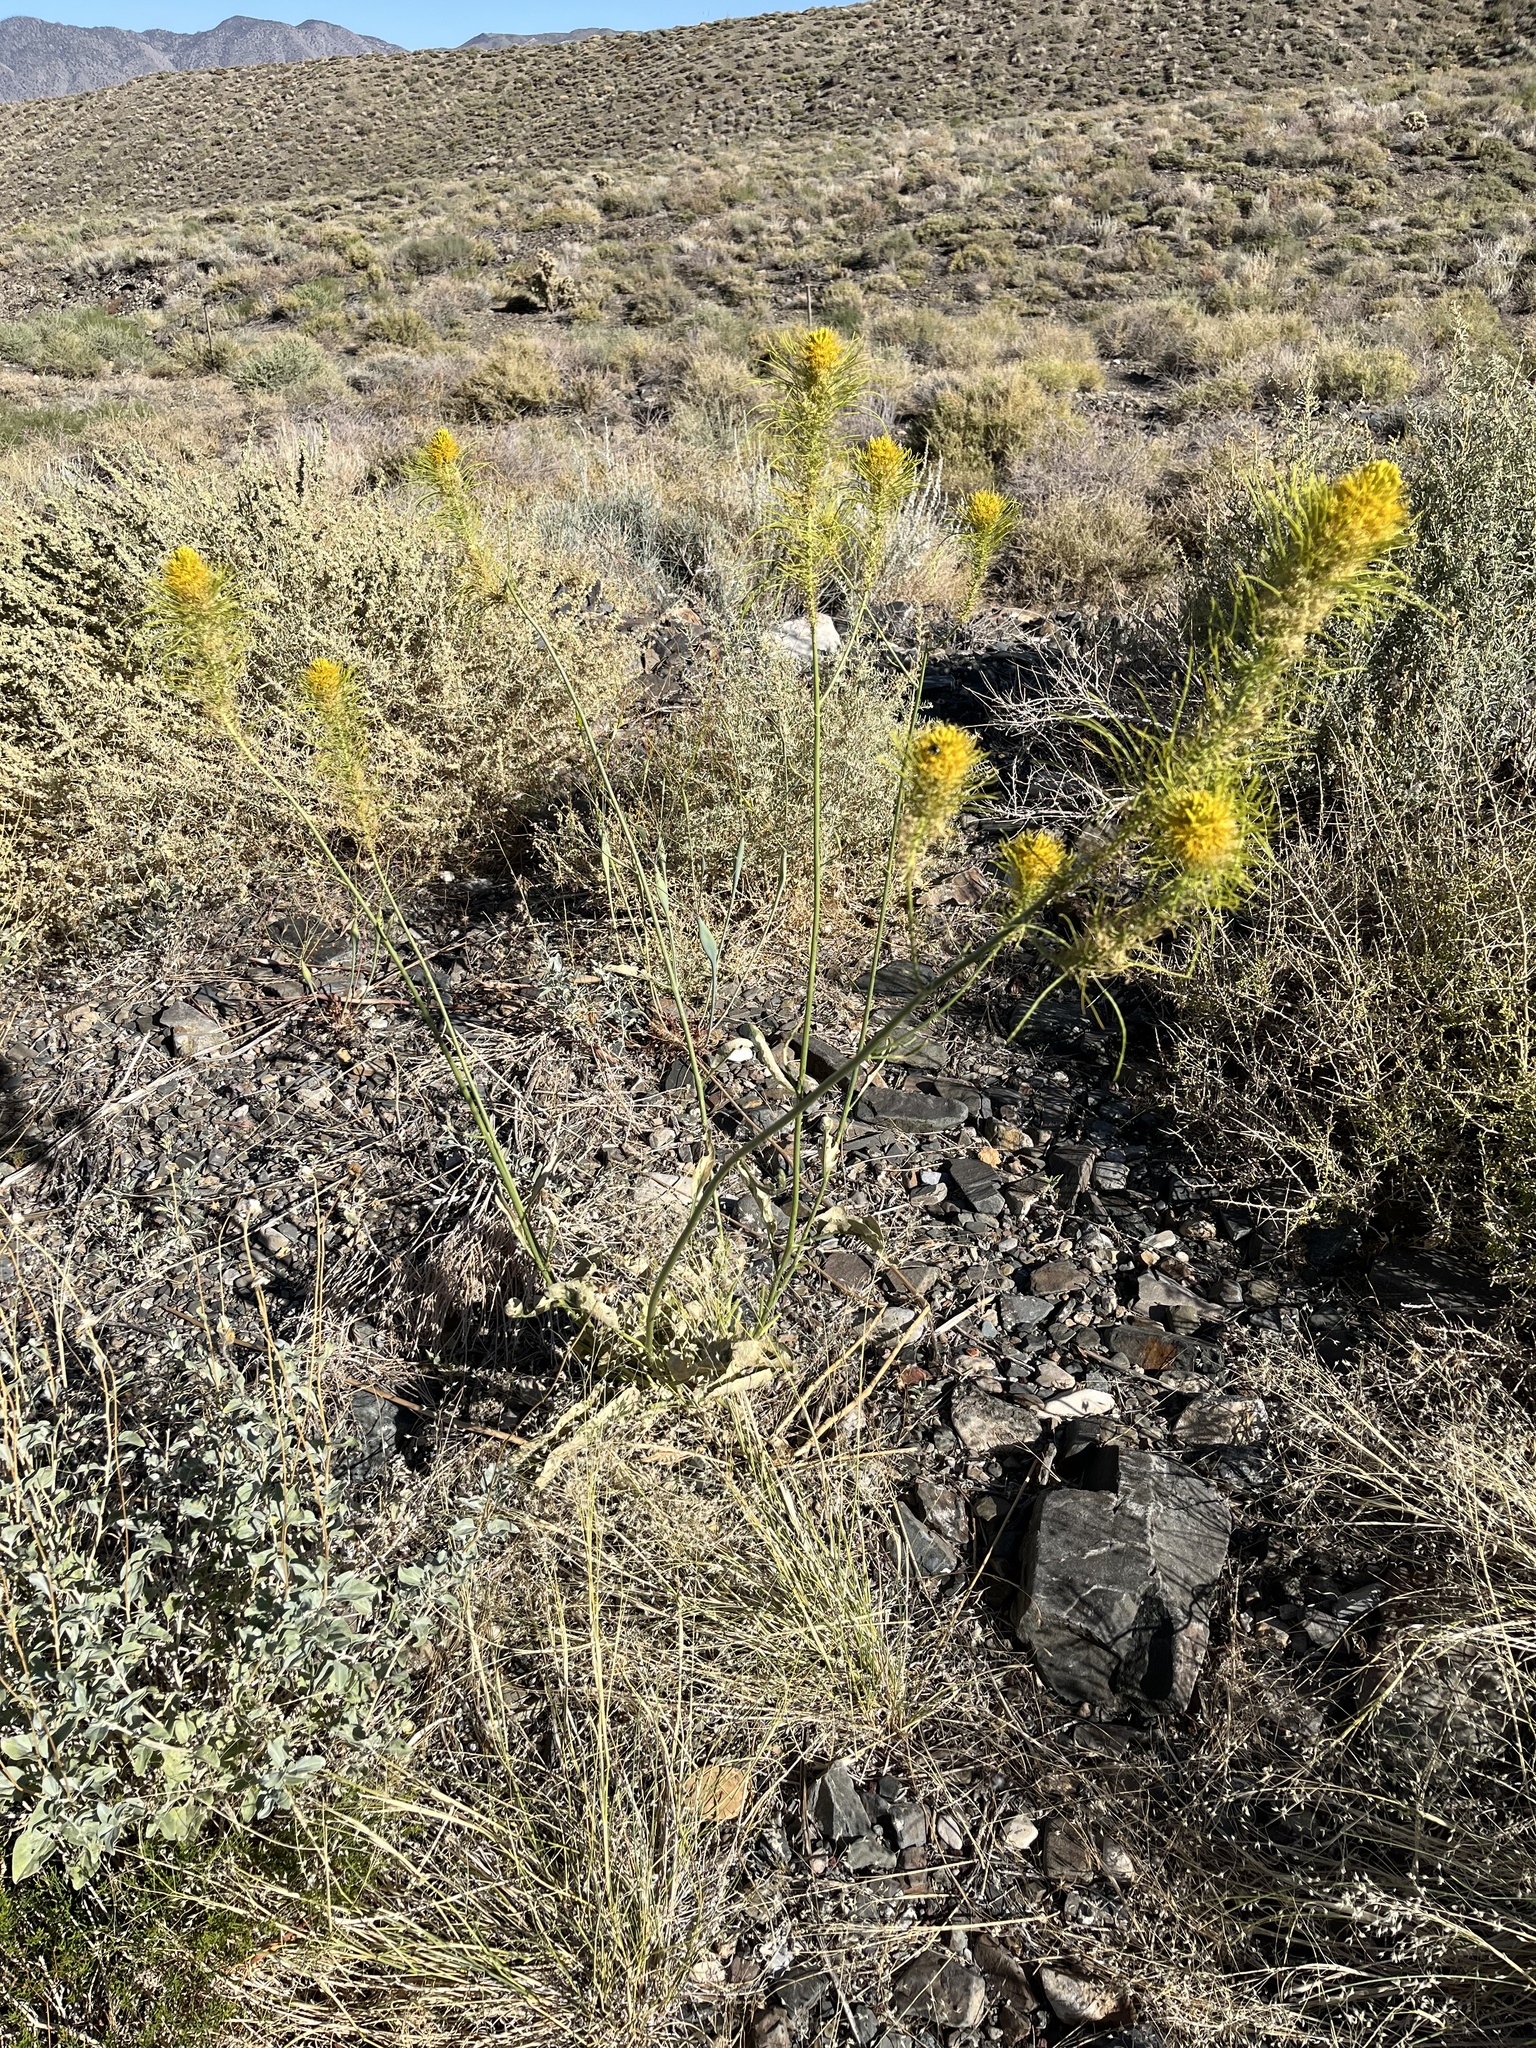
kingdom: Plantae
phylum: Tracheophyta
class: Magnoliopsida
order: Brassicales
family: Brassicaceae
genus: Stanleya
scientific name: Stanleya elata
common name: Panamint prince's plume
